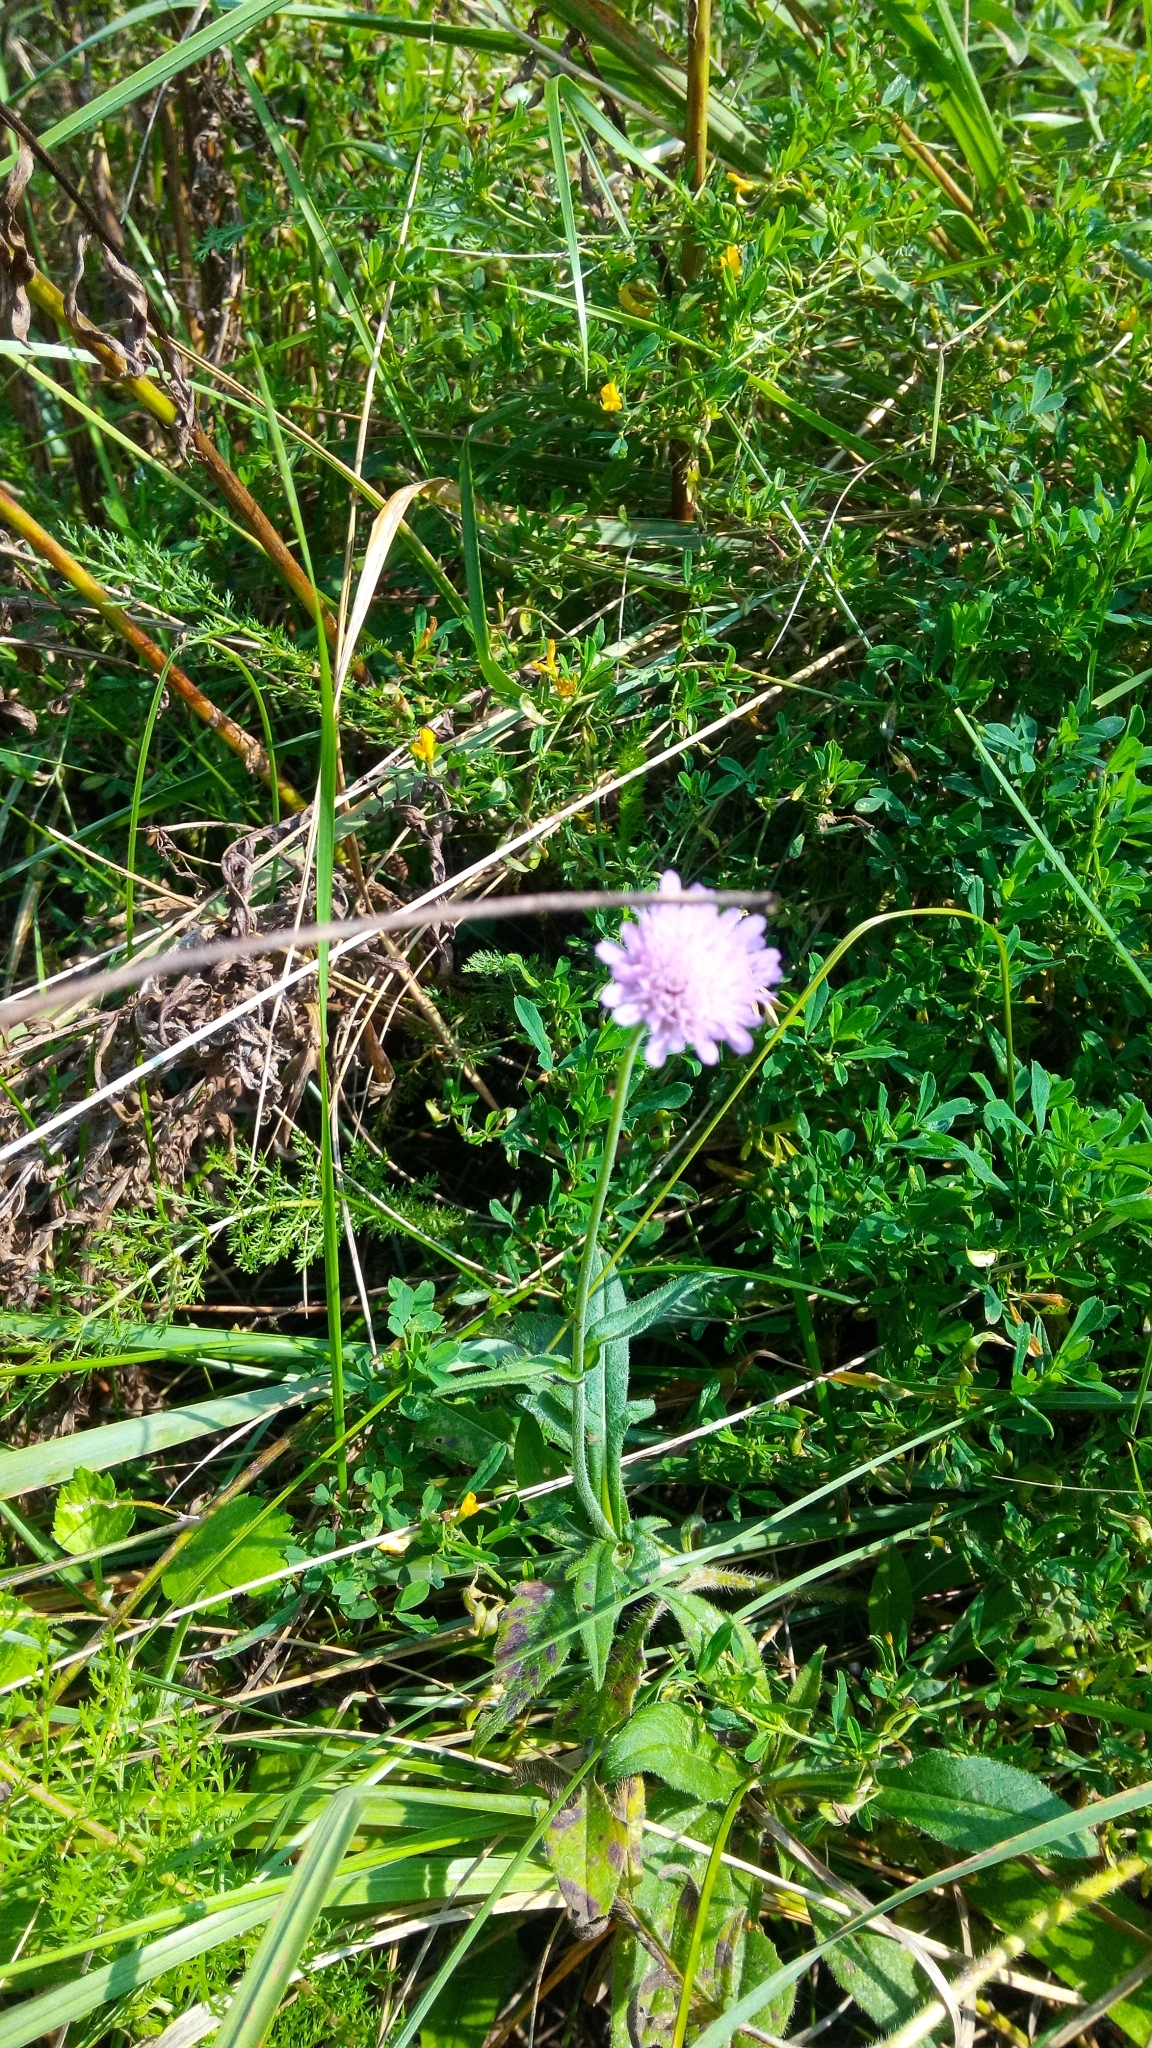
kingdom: Plantae
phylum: Tracheophyta
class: Magnoliopsida
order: Dipsacales
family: Caprifoliaceae
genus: Knautia
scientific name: Knautia arvensis
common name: Field scabiosa
